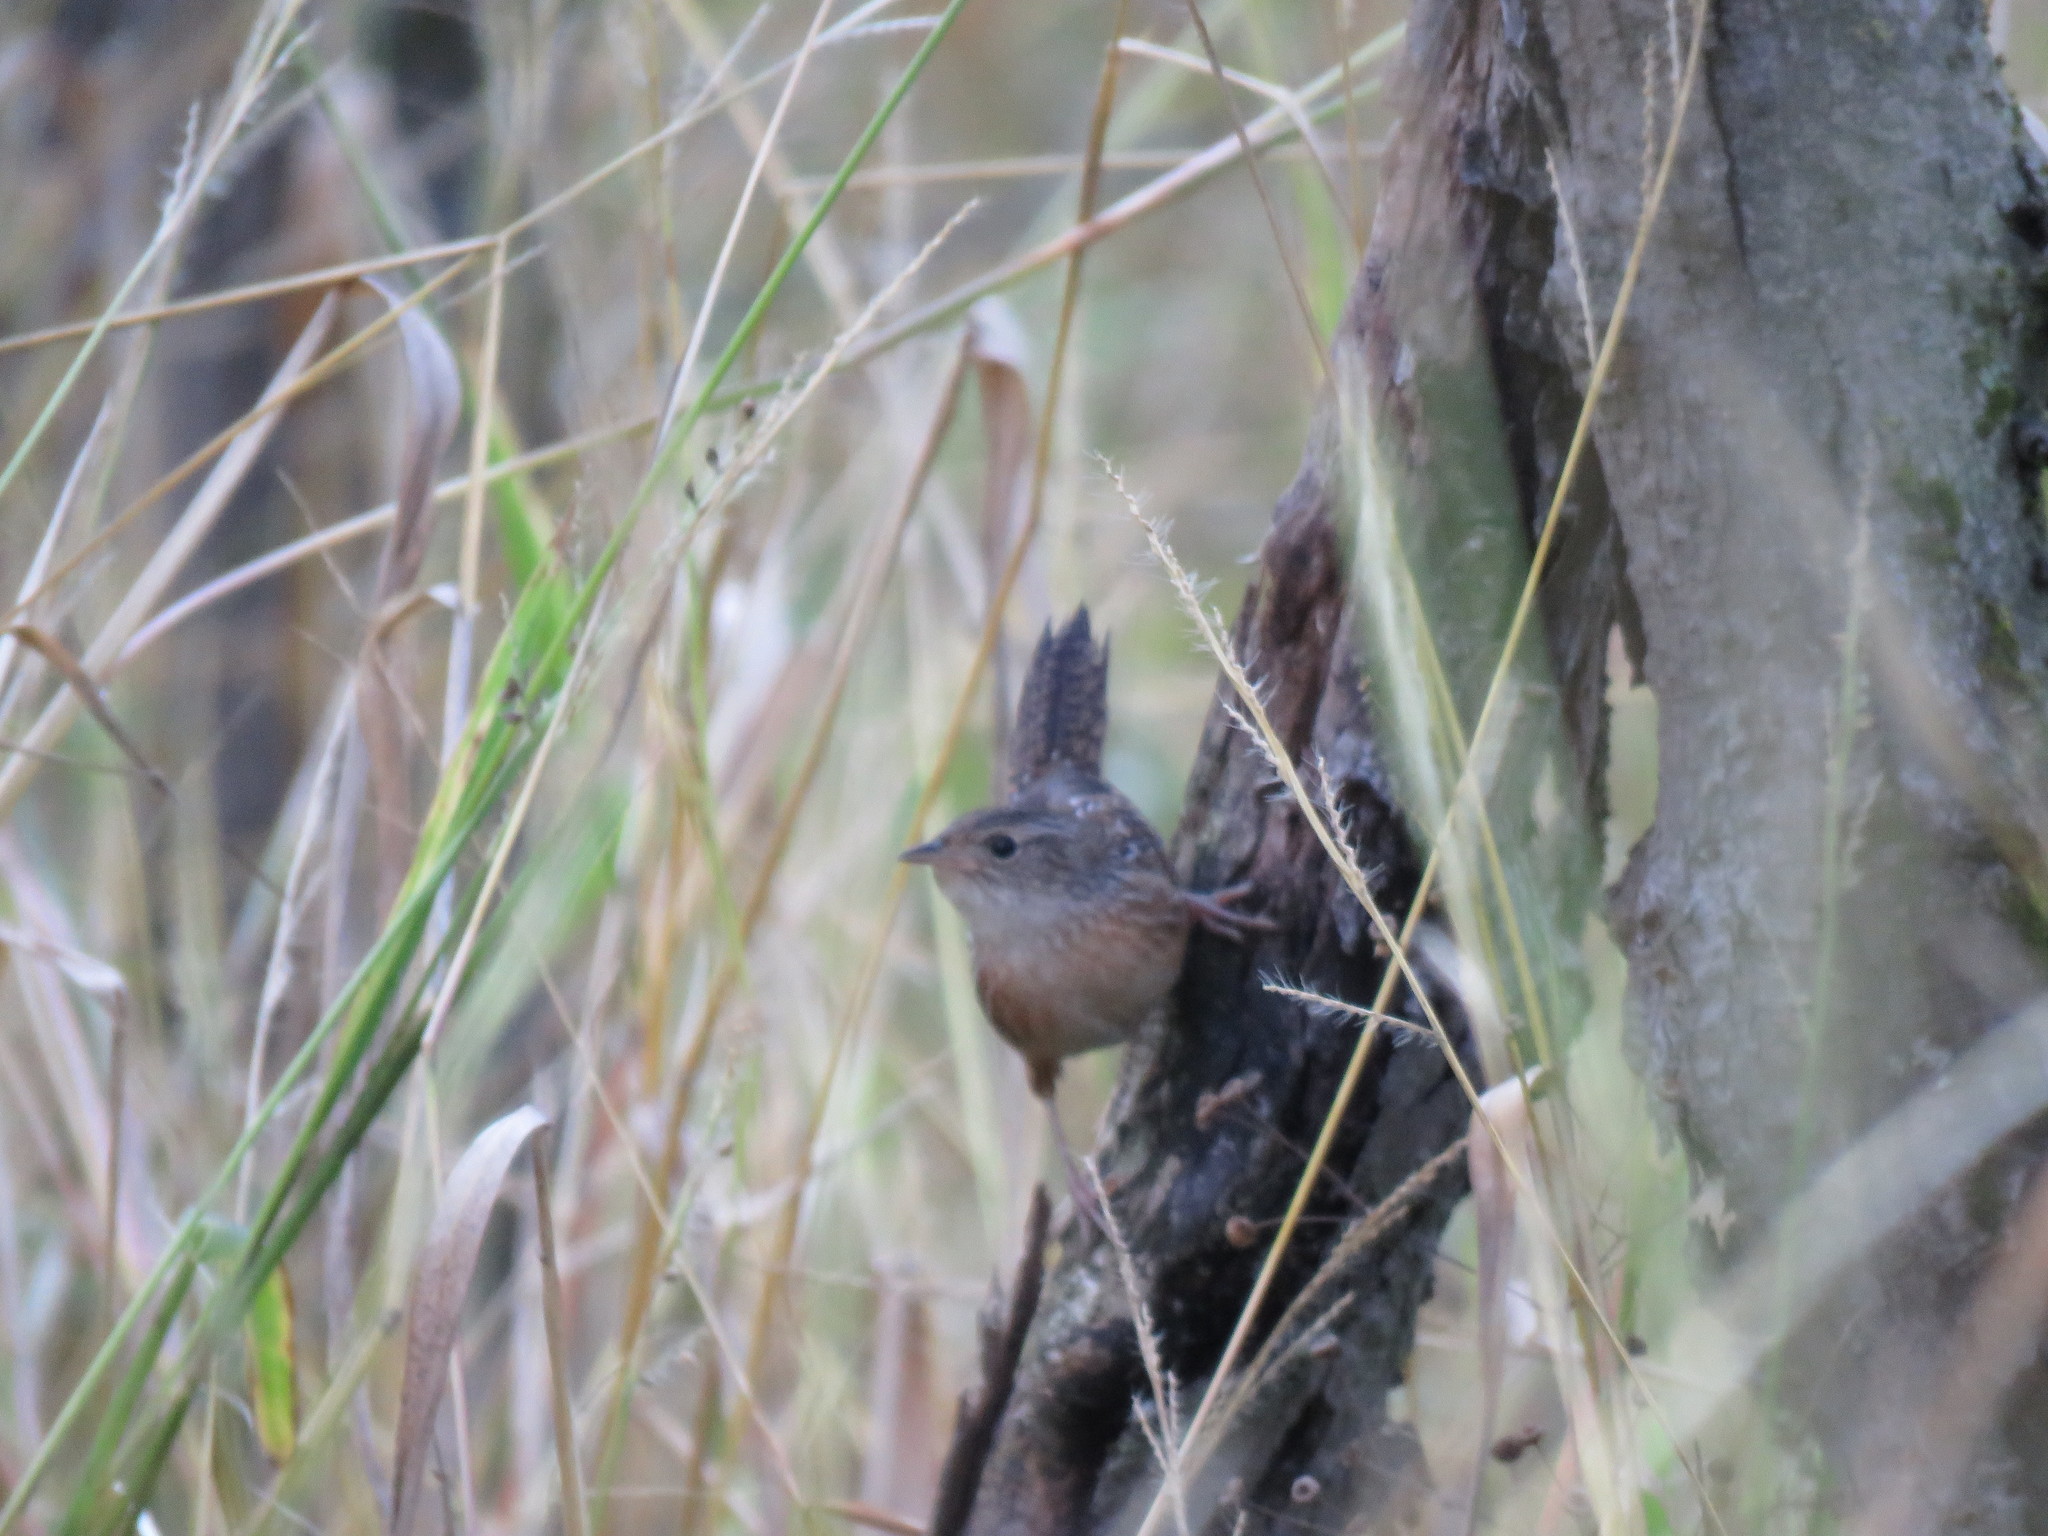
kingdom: Animalia
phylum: Chordata
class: Aves
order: Passeriformes
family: Troglodytidae
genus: Cistothorus
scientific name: Cistothorus platensis
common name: Sedge wren
